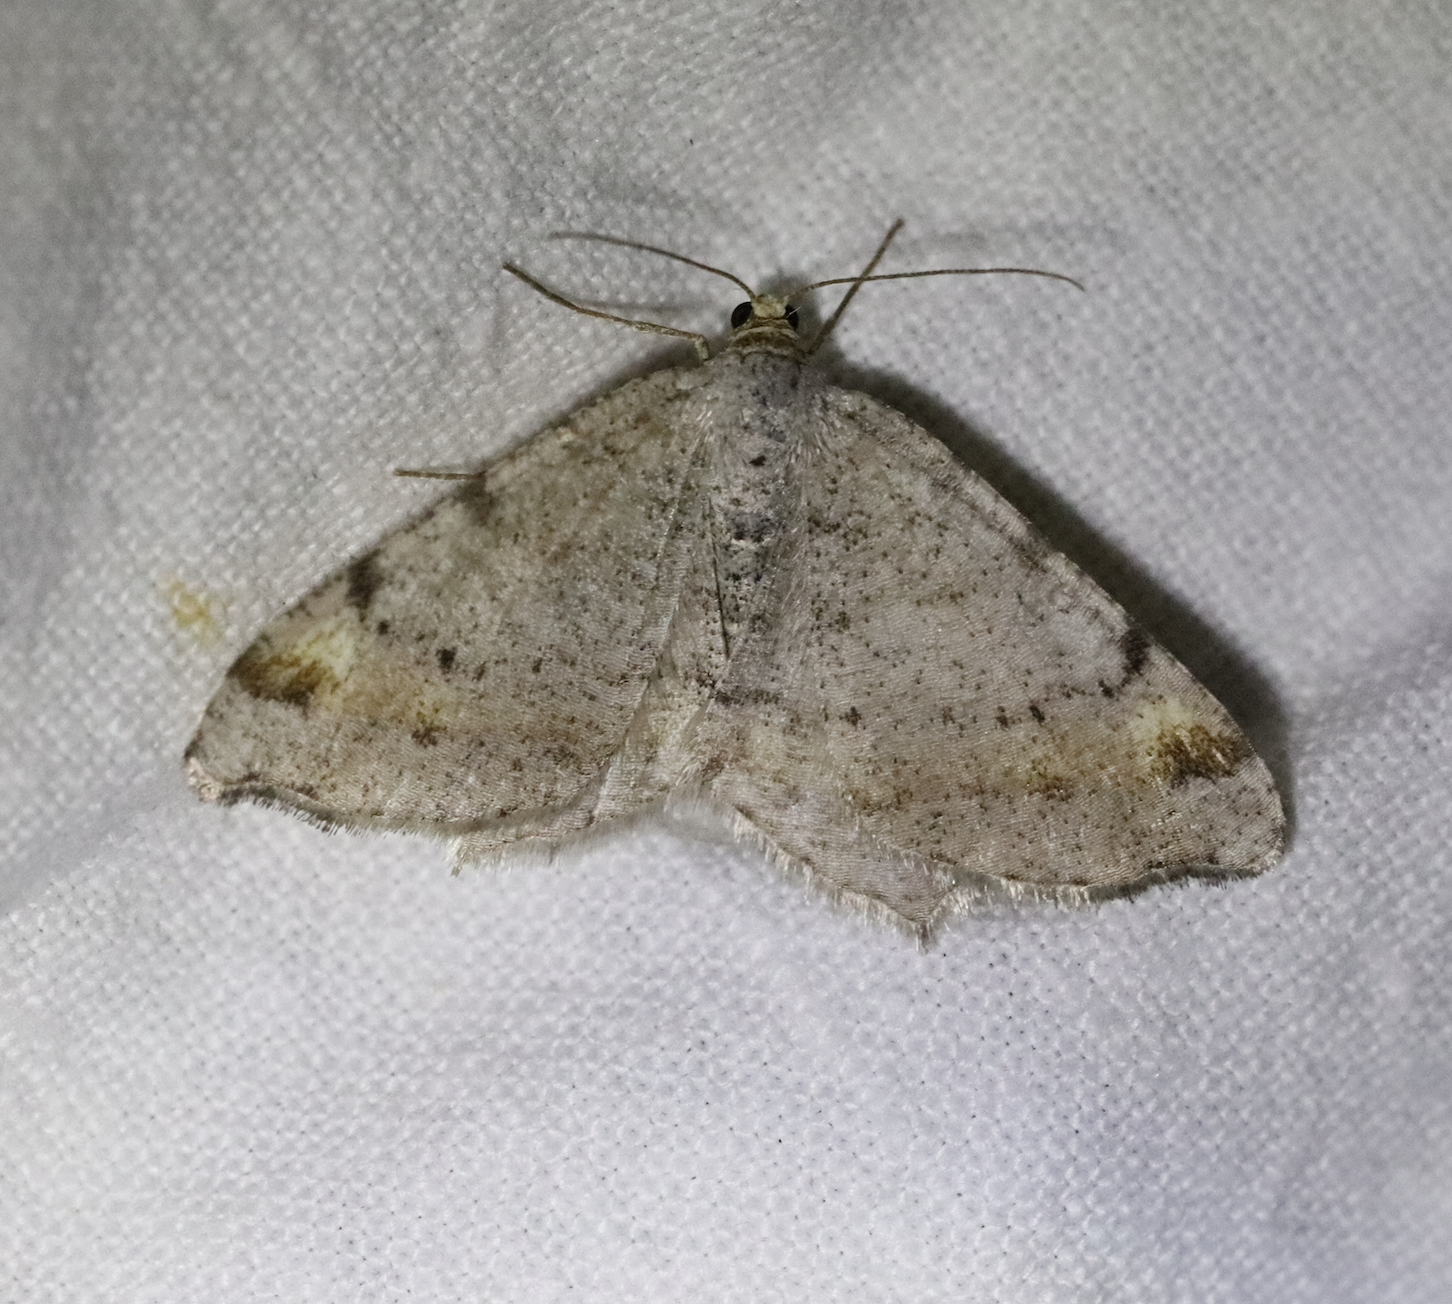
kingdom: Animalia
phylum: Arthropoda
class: Insecta
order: Lepidoptera
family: Geometridae
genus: Macaria
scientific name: Macaria liturata
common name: Tawny-barred angle
